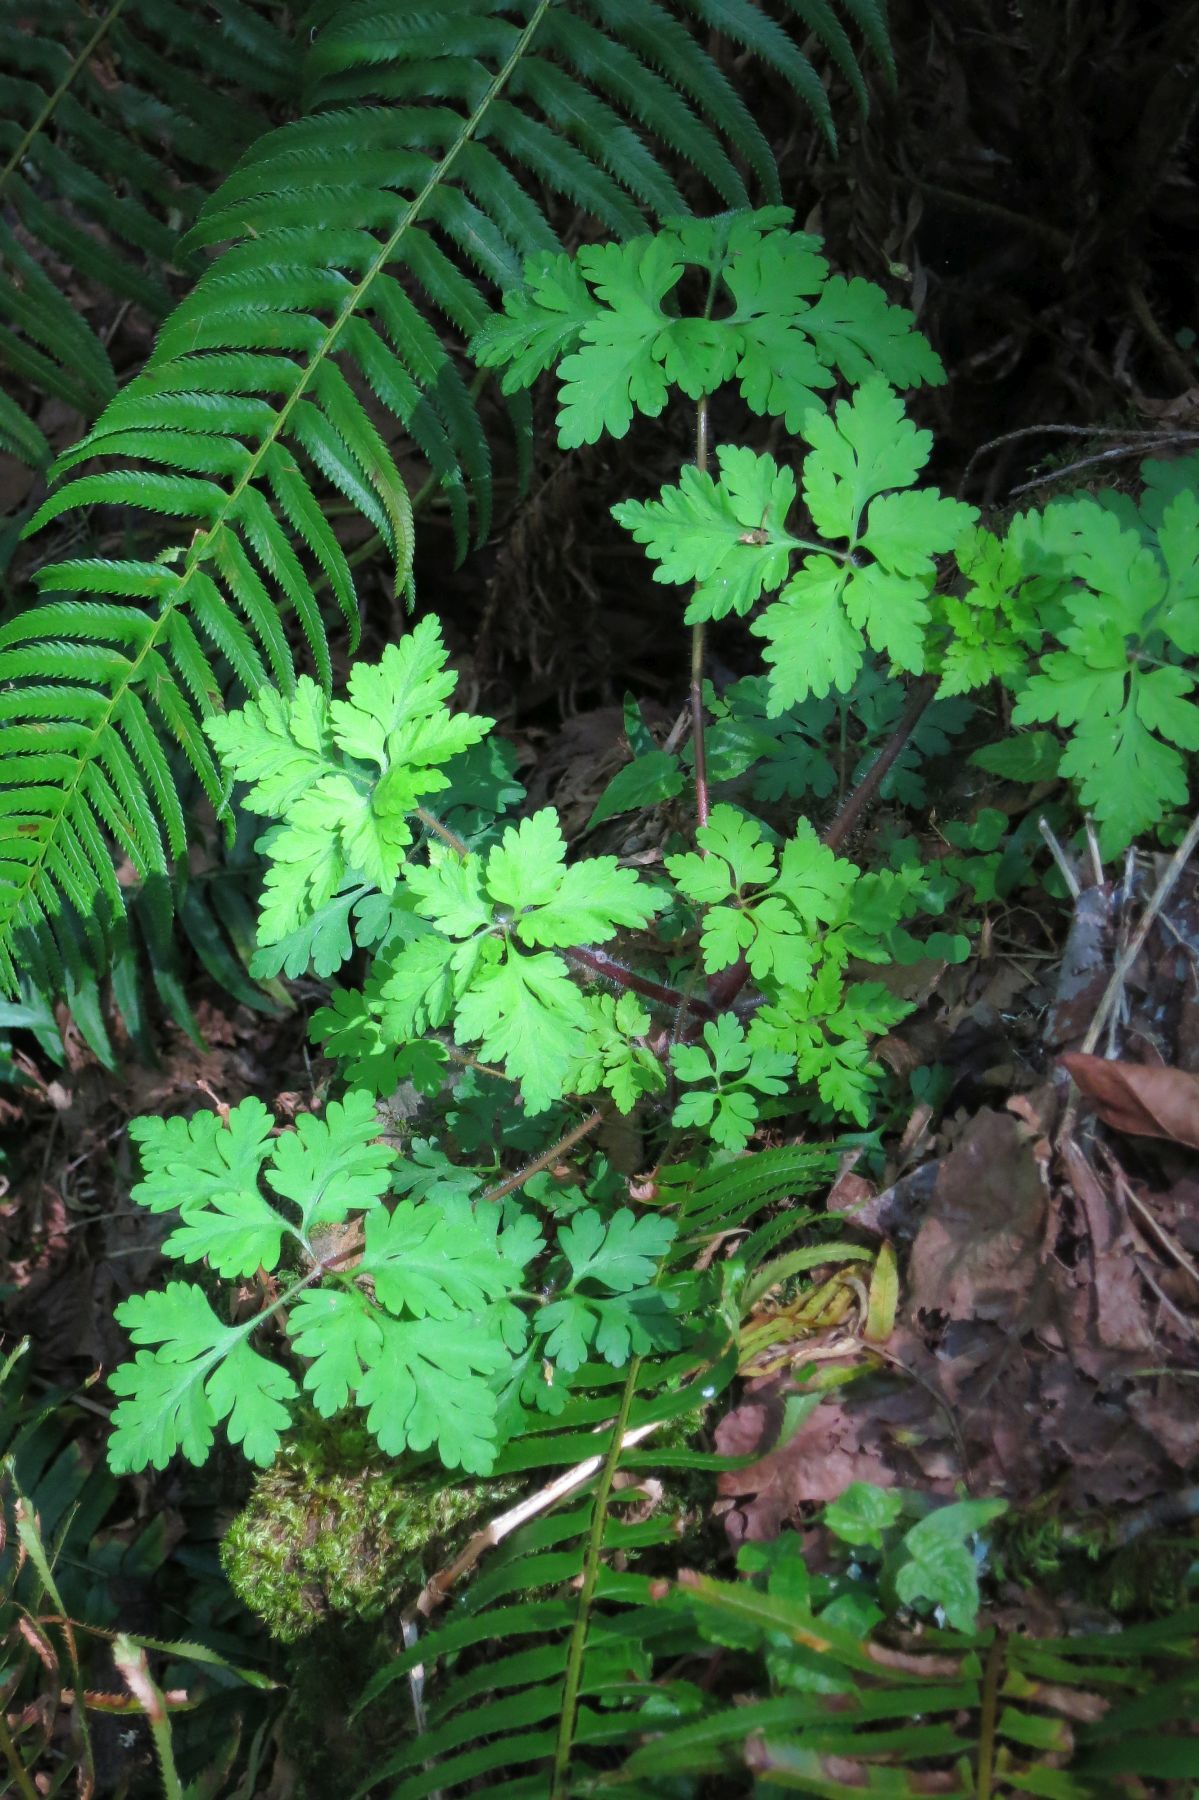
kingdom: Plantae
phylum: Tracheophyta
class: Magnoliopsida
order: Geraniales
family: Geraniaceae
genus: Geranium
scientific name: Geranium robertianum
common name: Herb-robert
